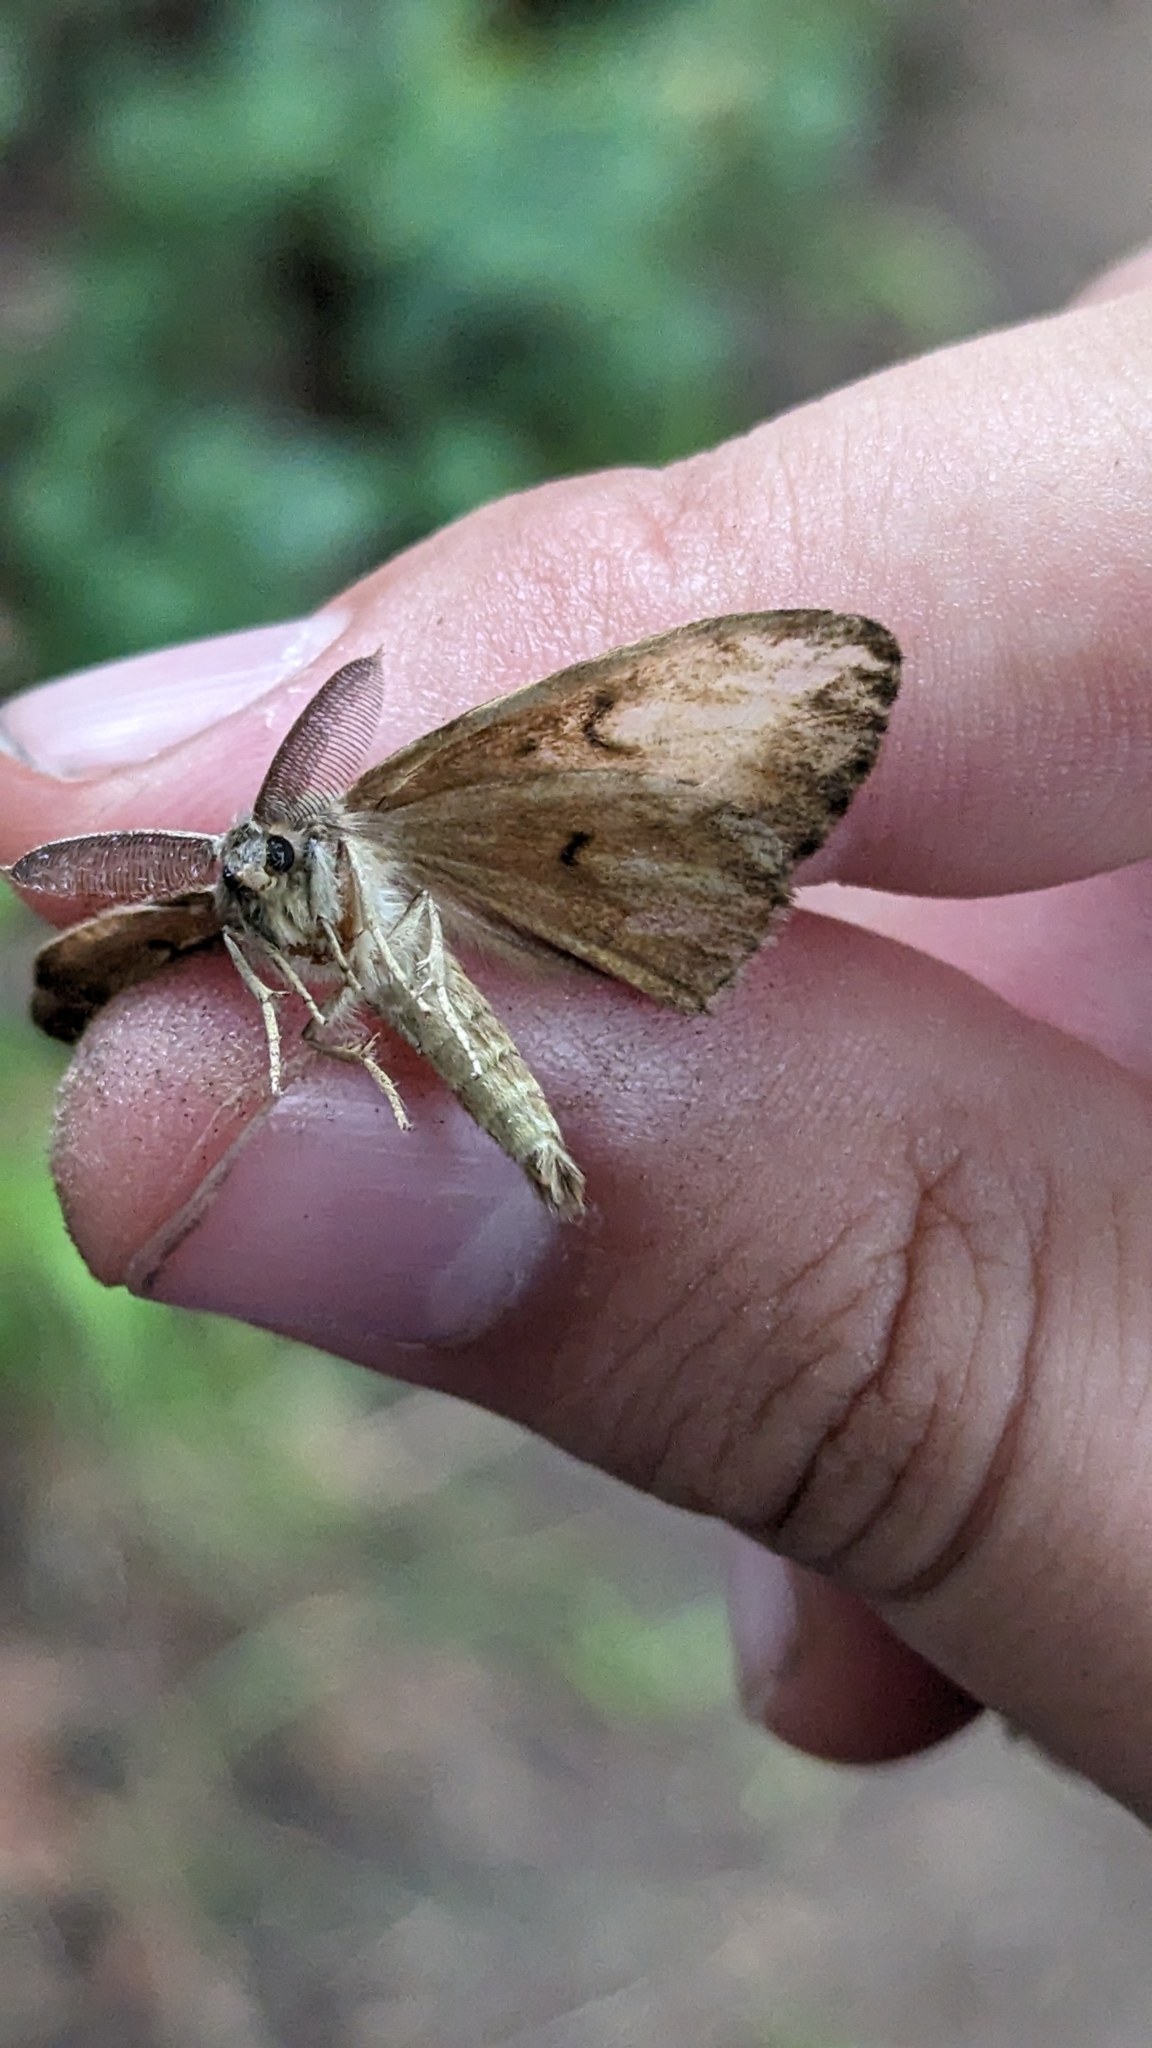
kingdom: Animalia
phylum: Arthropoda
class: Insecta
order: Lepidoptera
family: Erebidae
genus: Lymantria
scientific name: Lymantria dispar
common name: Gypsy moth
